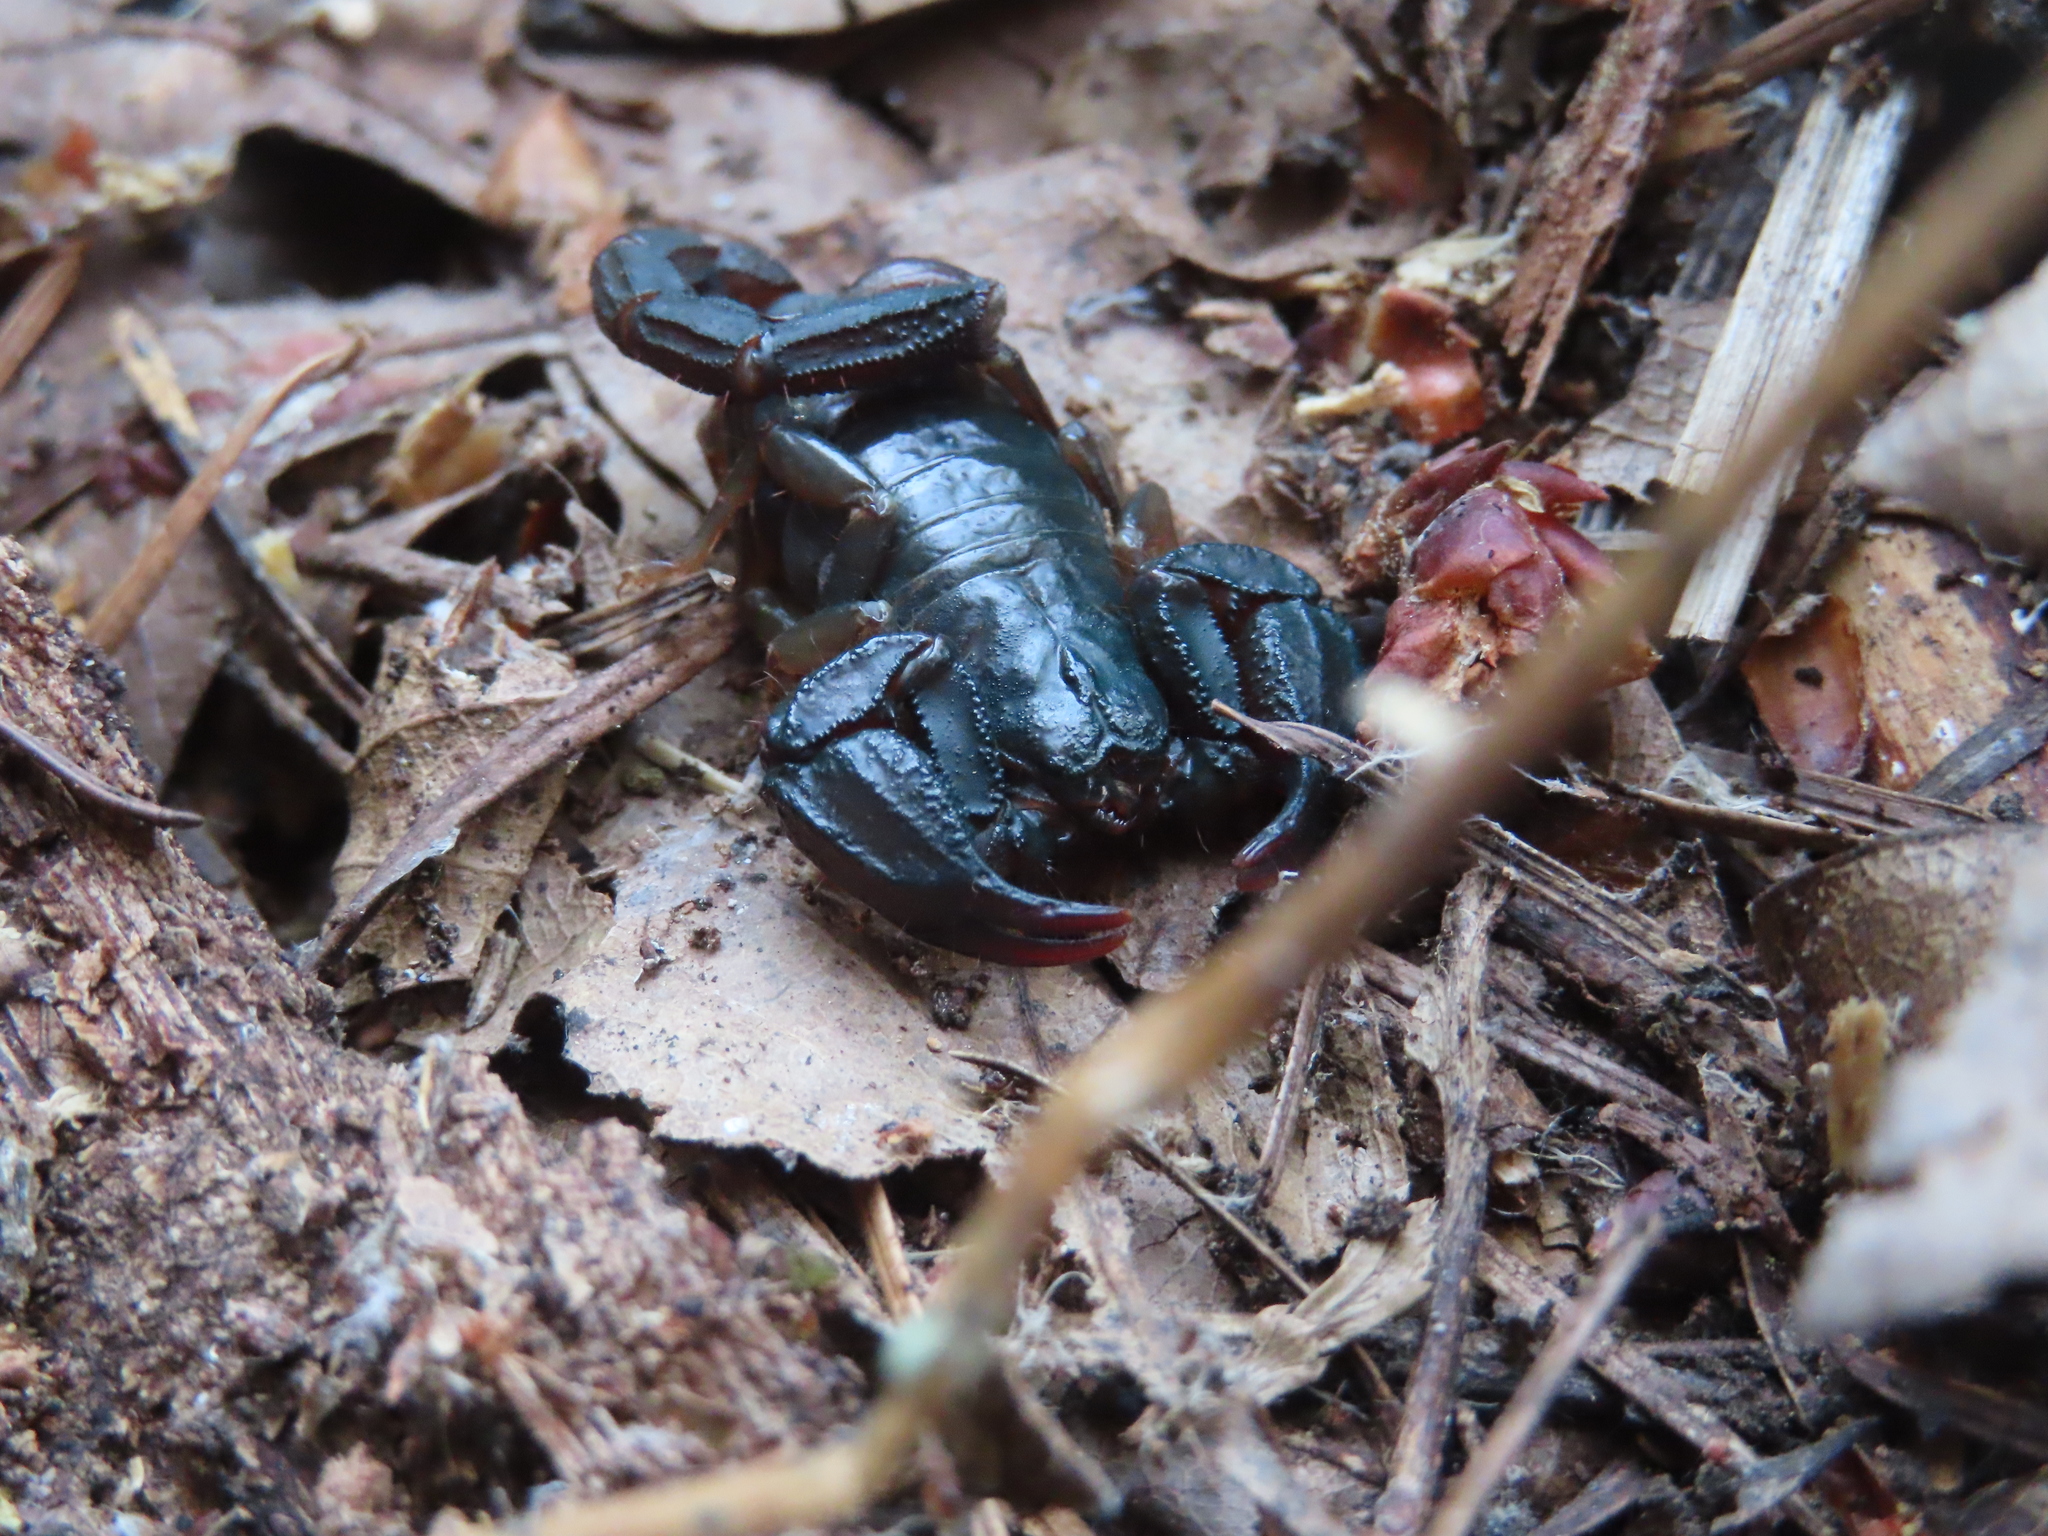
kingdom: Animalia
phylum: Arthropoda
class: Arachnida
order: Scorpiones
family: Chactidae
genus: Uroctonus
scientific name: Uroctonus mordax
